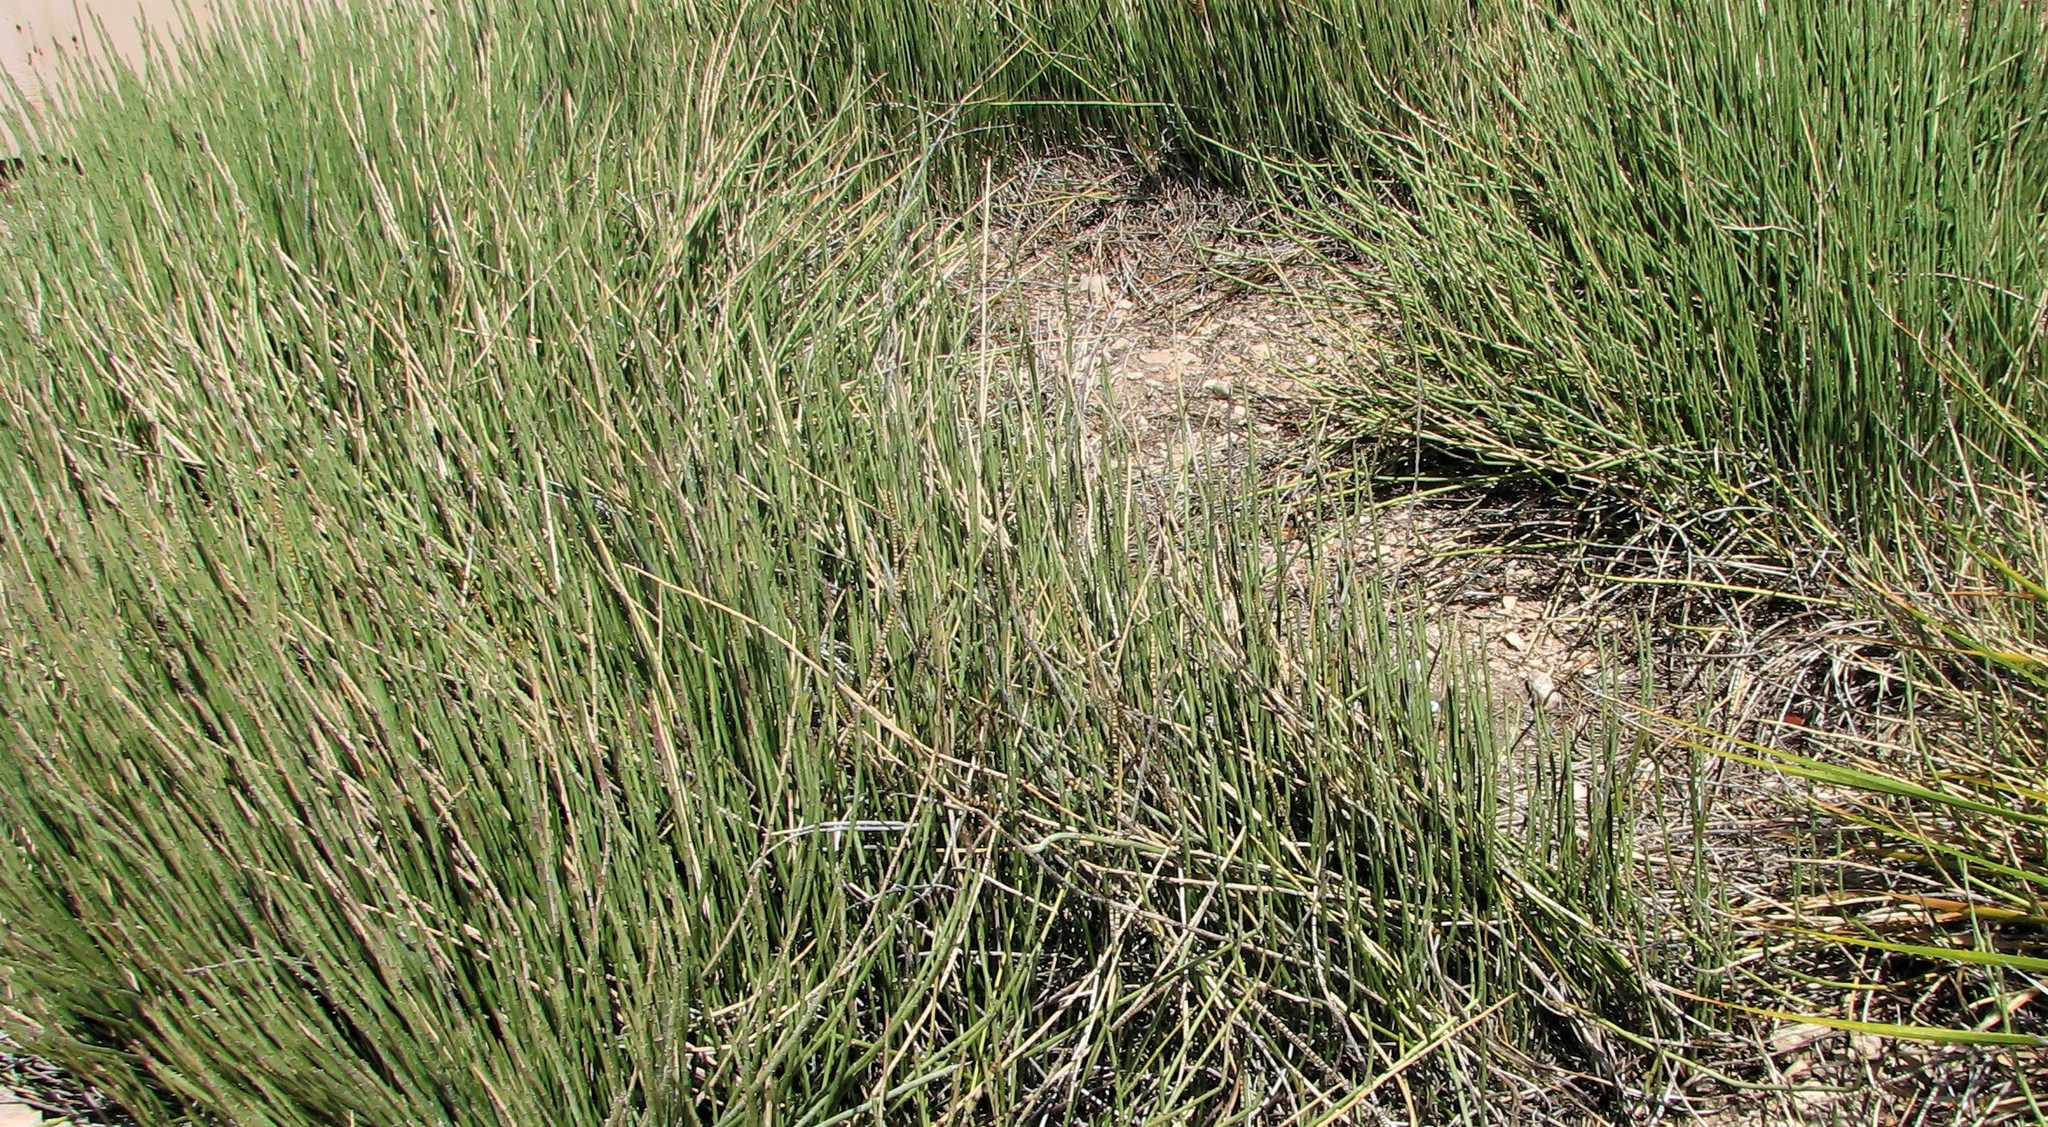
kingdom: Plantae
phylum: Tracheophyta
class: Magnoliopsida
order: Malpighiales
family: Euphorbiaceae
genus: Euphorbia
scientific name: Euphorbia antisyphilitica
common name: Candelilla
